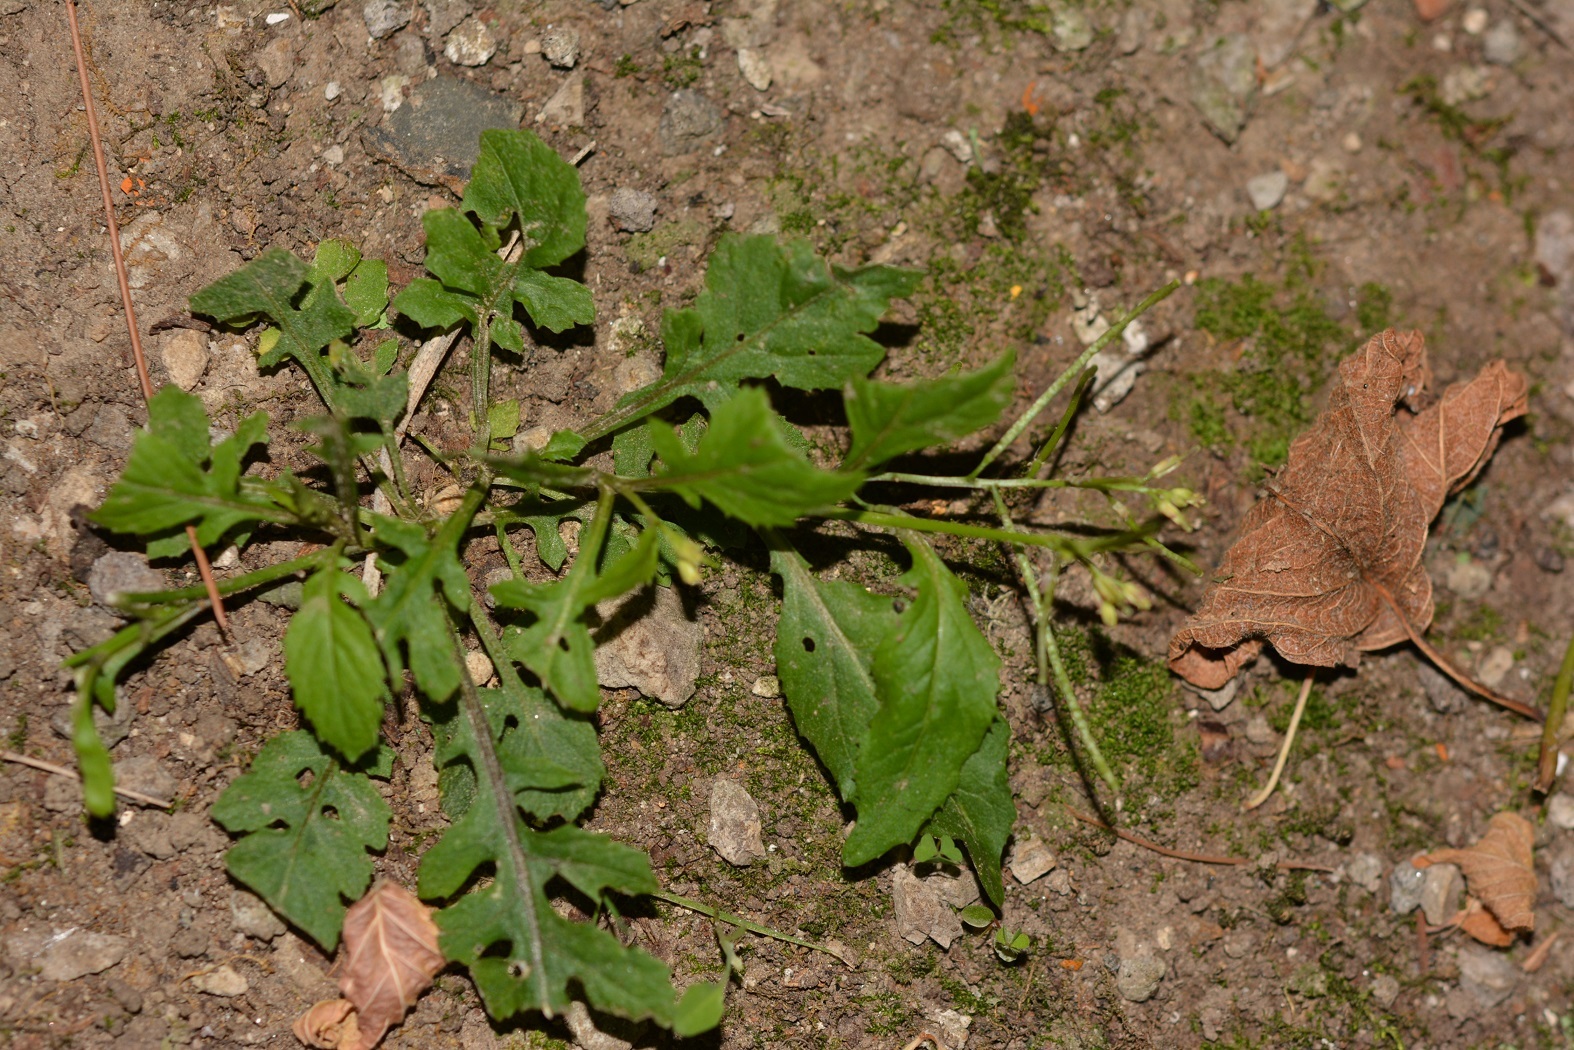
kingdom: Plantae
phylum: Tracheophyta
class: Magnoliopsida
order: Brassicales
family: Brassicaceae
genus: Rorippa
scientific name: Rorippa dubia
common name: Variableleaf yellowcress
